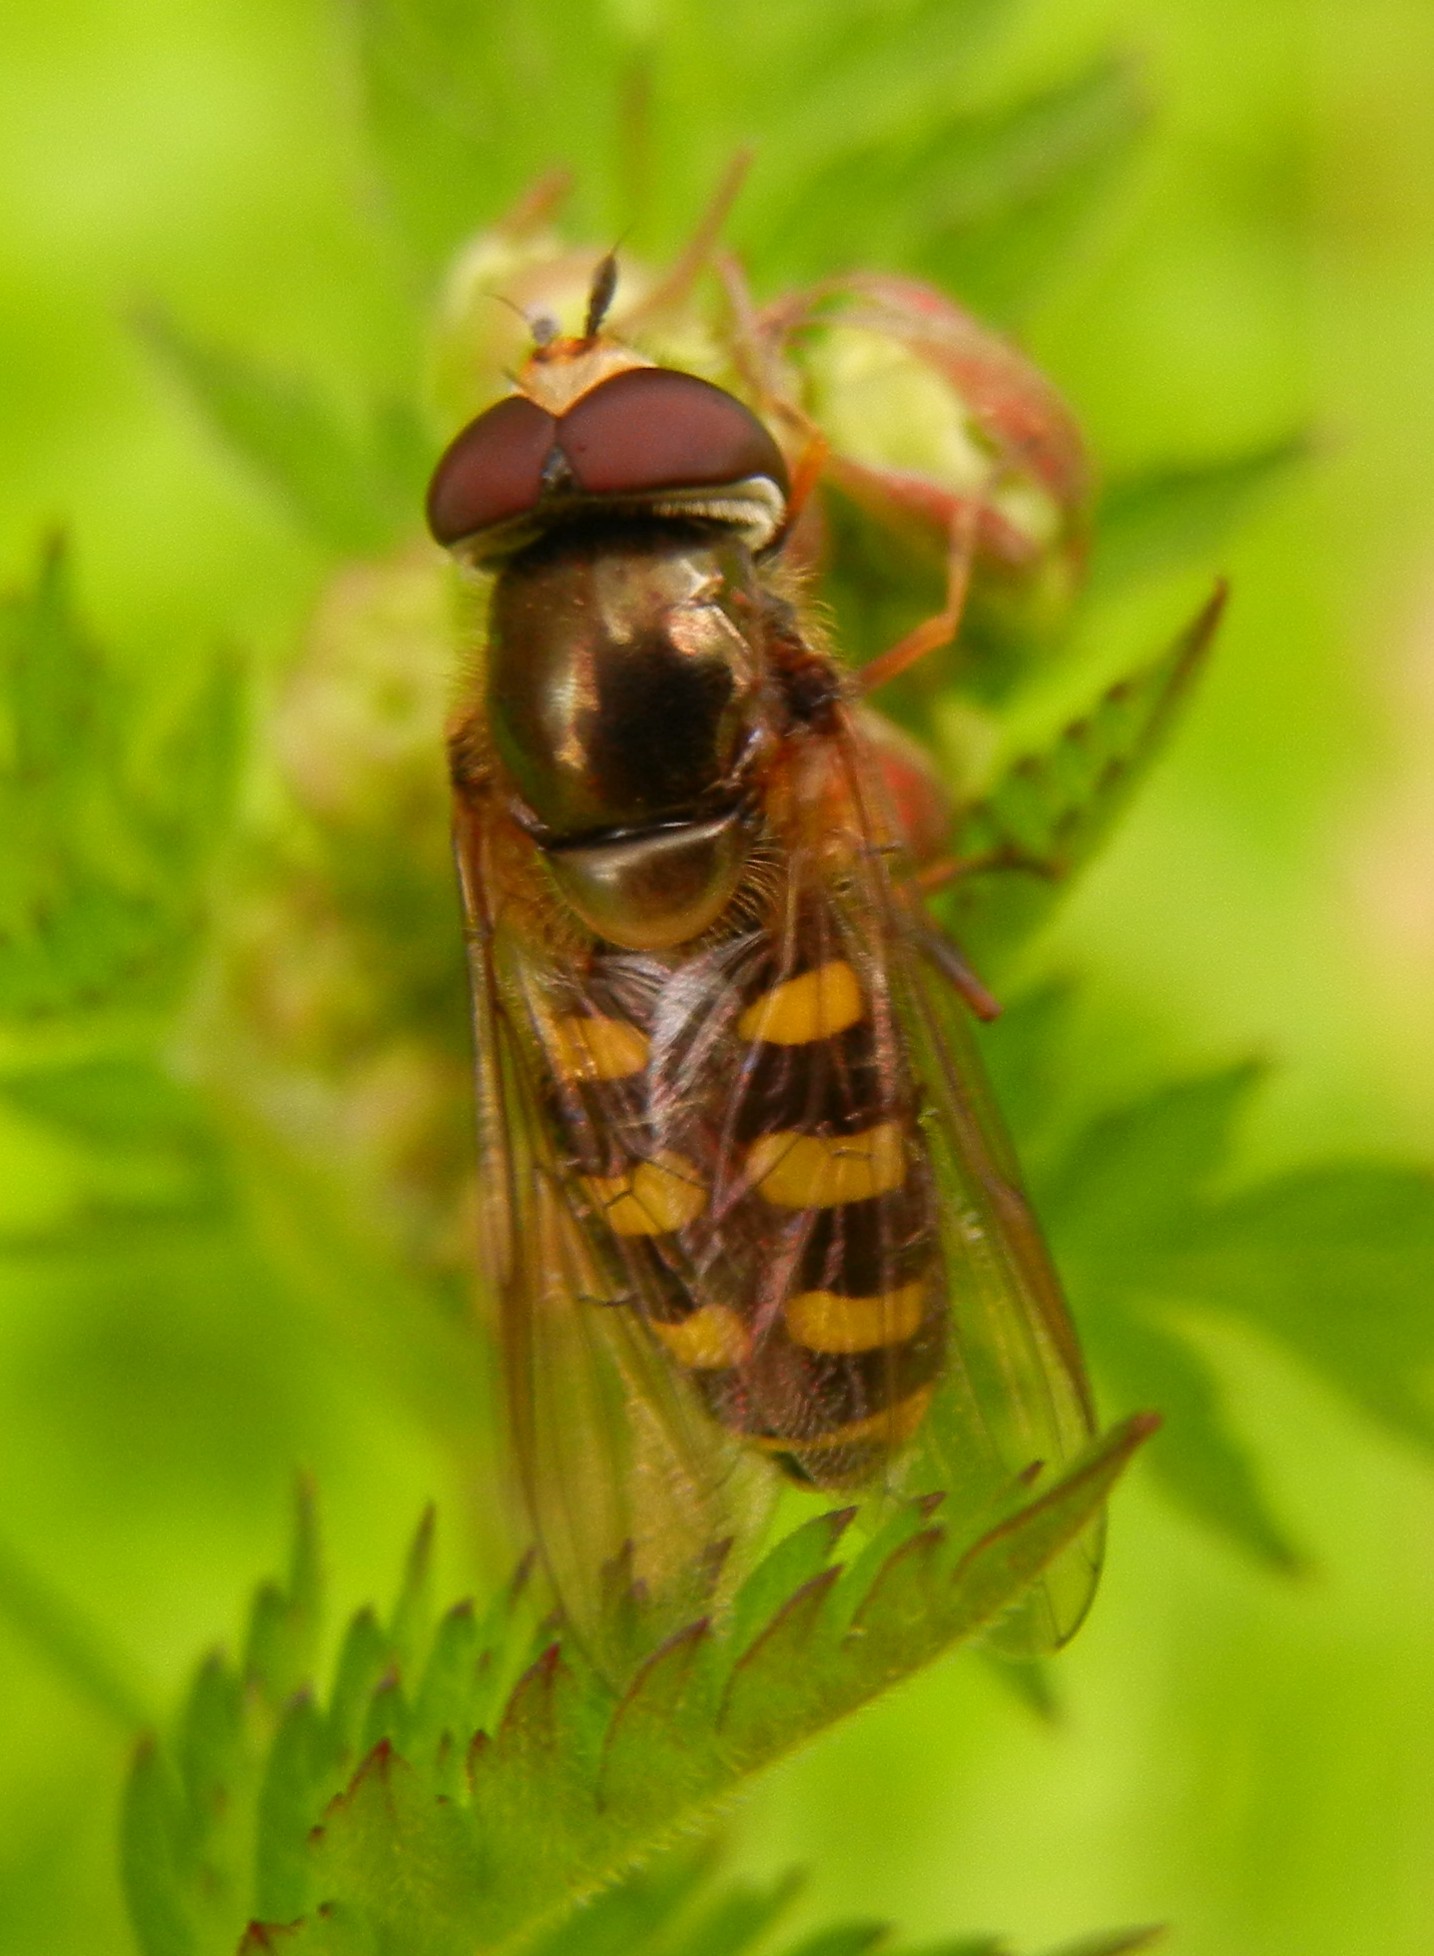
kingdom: Animalia
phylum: Arthropoda
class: Insecta
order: Diptera
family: Syrphidae
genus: Eupeodes
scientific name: Eupeodes
